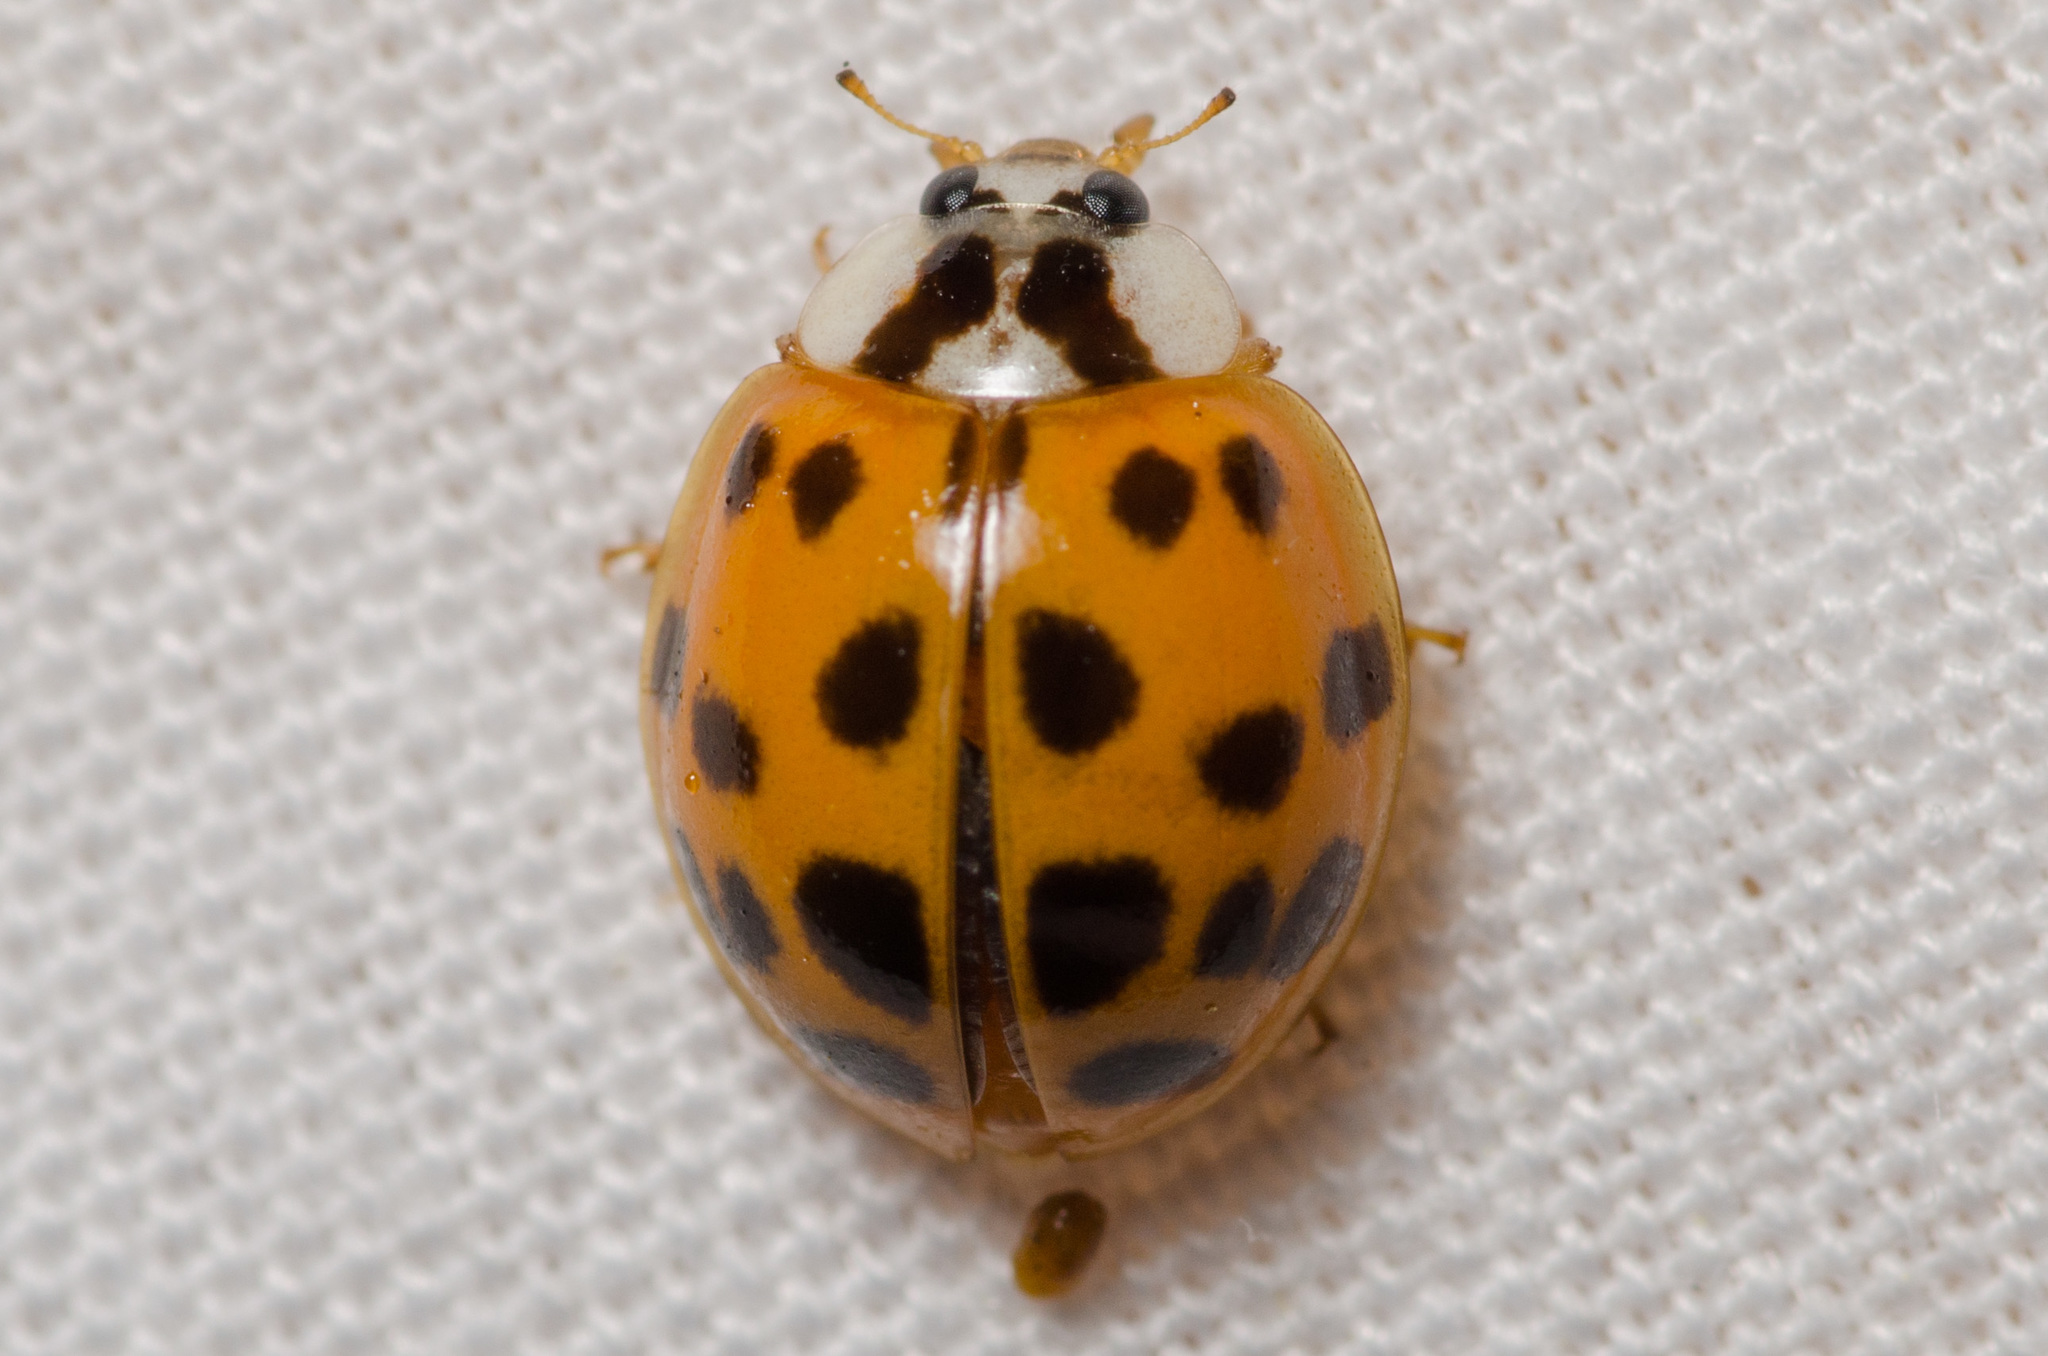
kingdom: Animalia
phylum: Arthropoda
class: Insecta
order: Coleoptera
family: Coccinellidae
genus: Harmonia
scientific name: Harmonia axyridis
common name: Harlequin ladybird
